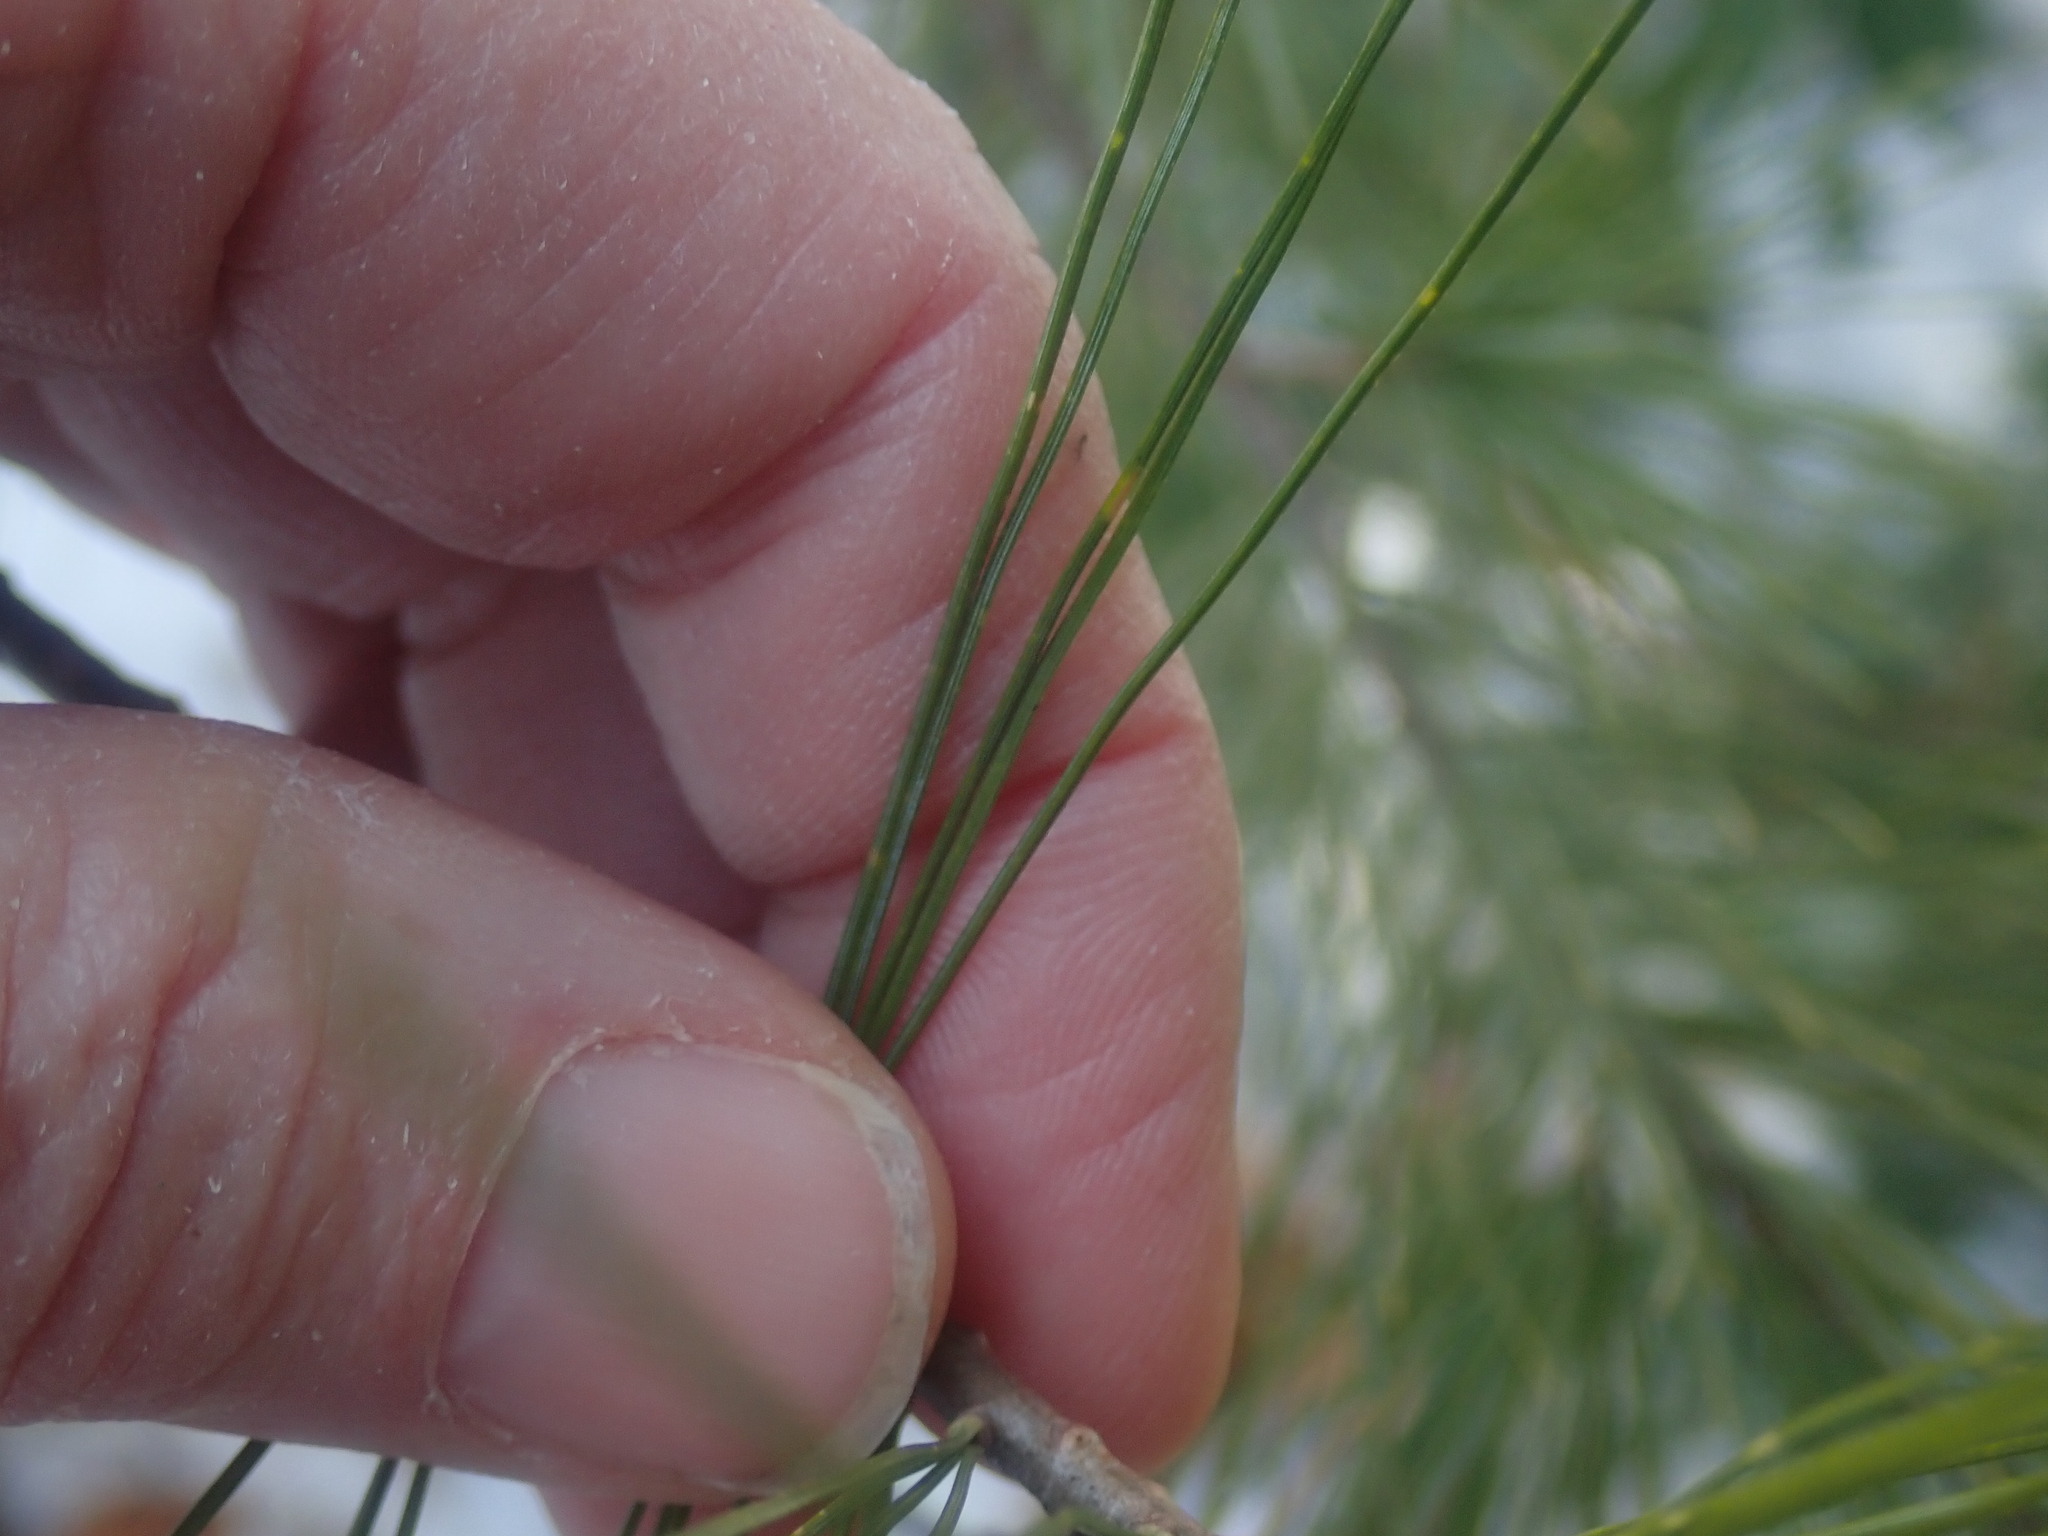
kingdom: Plantae
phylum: Tracheophyta
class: Pinopsida
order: Pinales
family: Pinaceae
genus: Pinus
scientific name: Pinus strobus
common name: Weymouth pine
